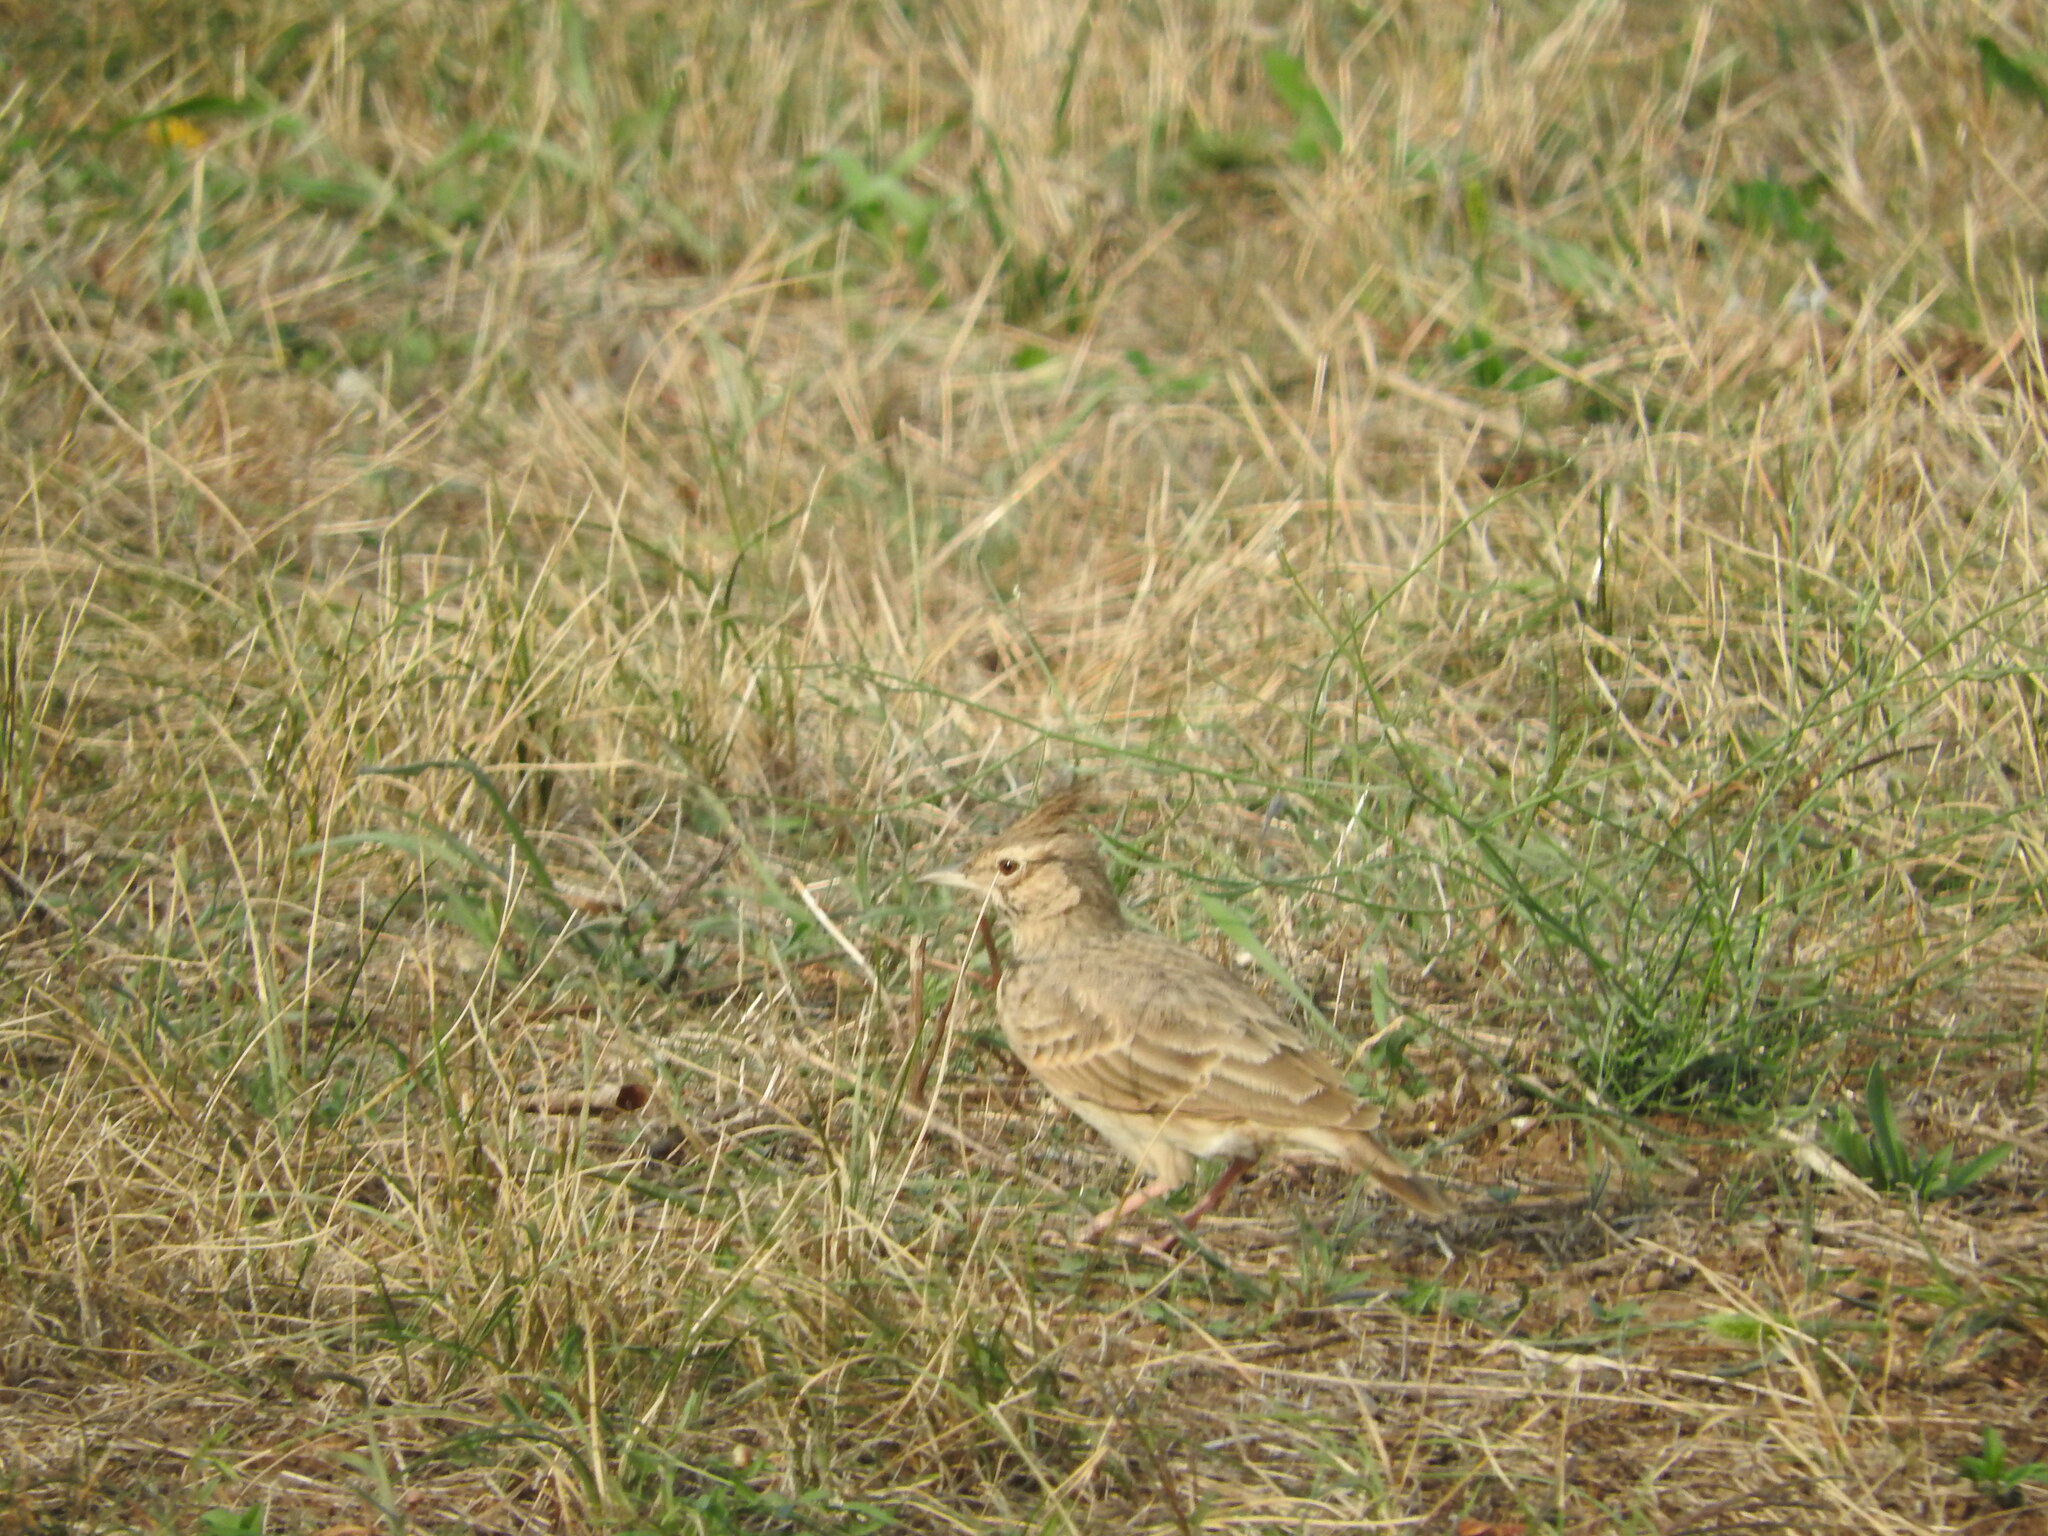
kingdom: Animalia
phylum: Chordata
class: Aves
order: Passeriformes
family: Alaudidae
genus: Galerida
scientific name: Galerida cristata
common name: Crested lark
